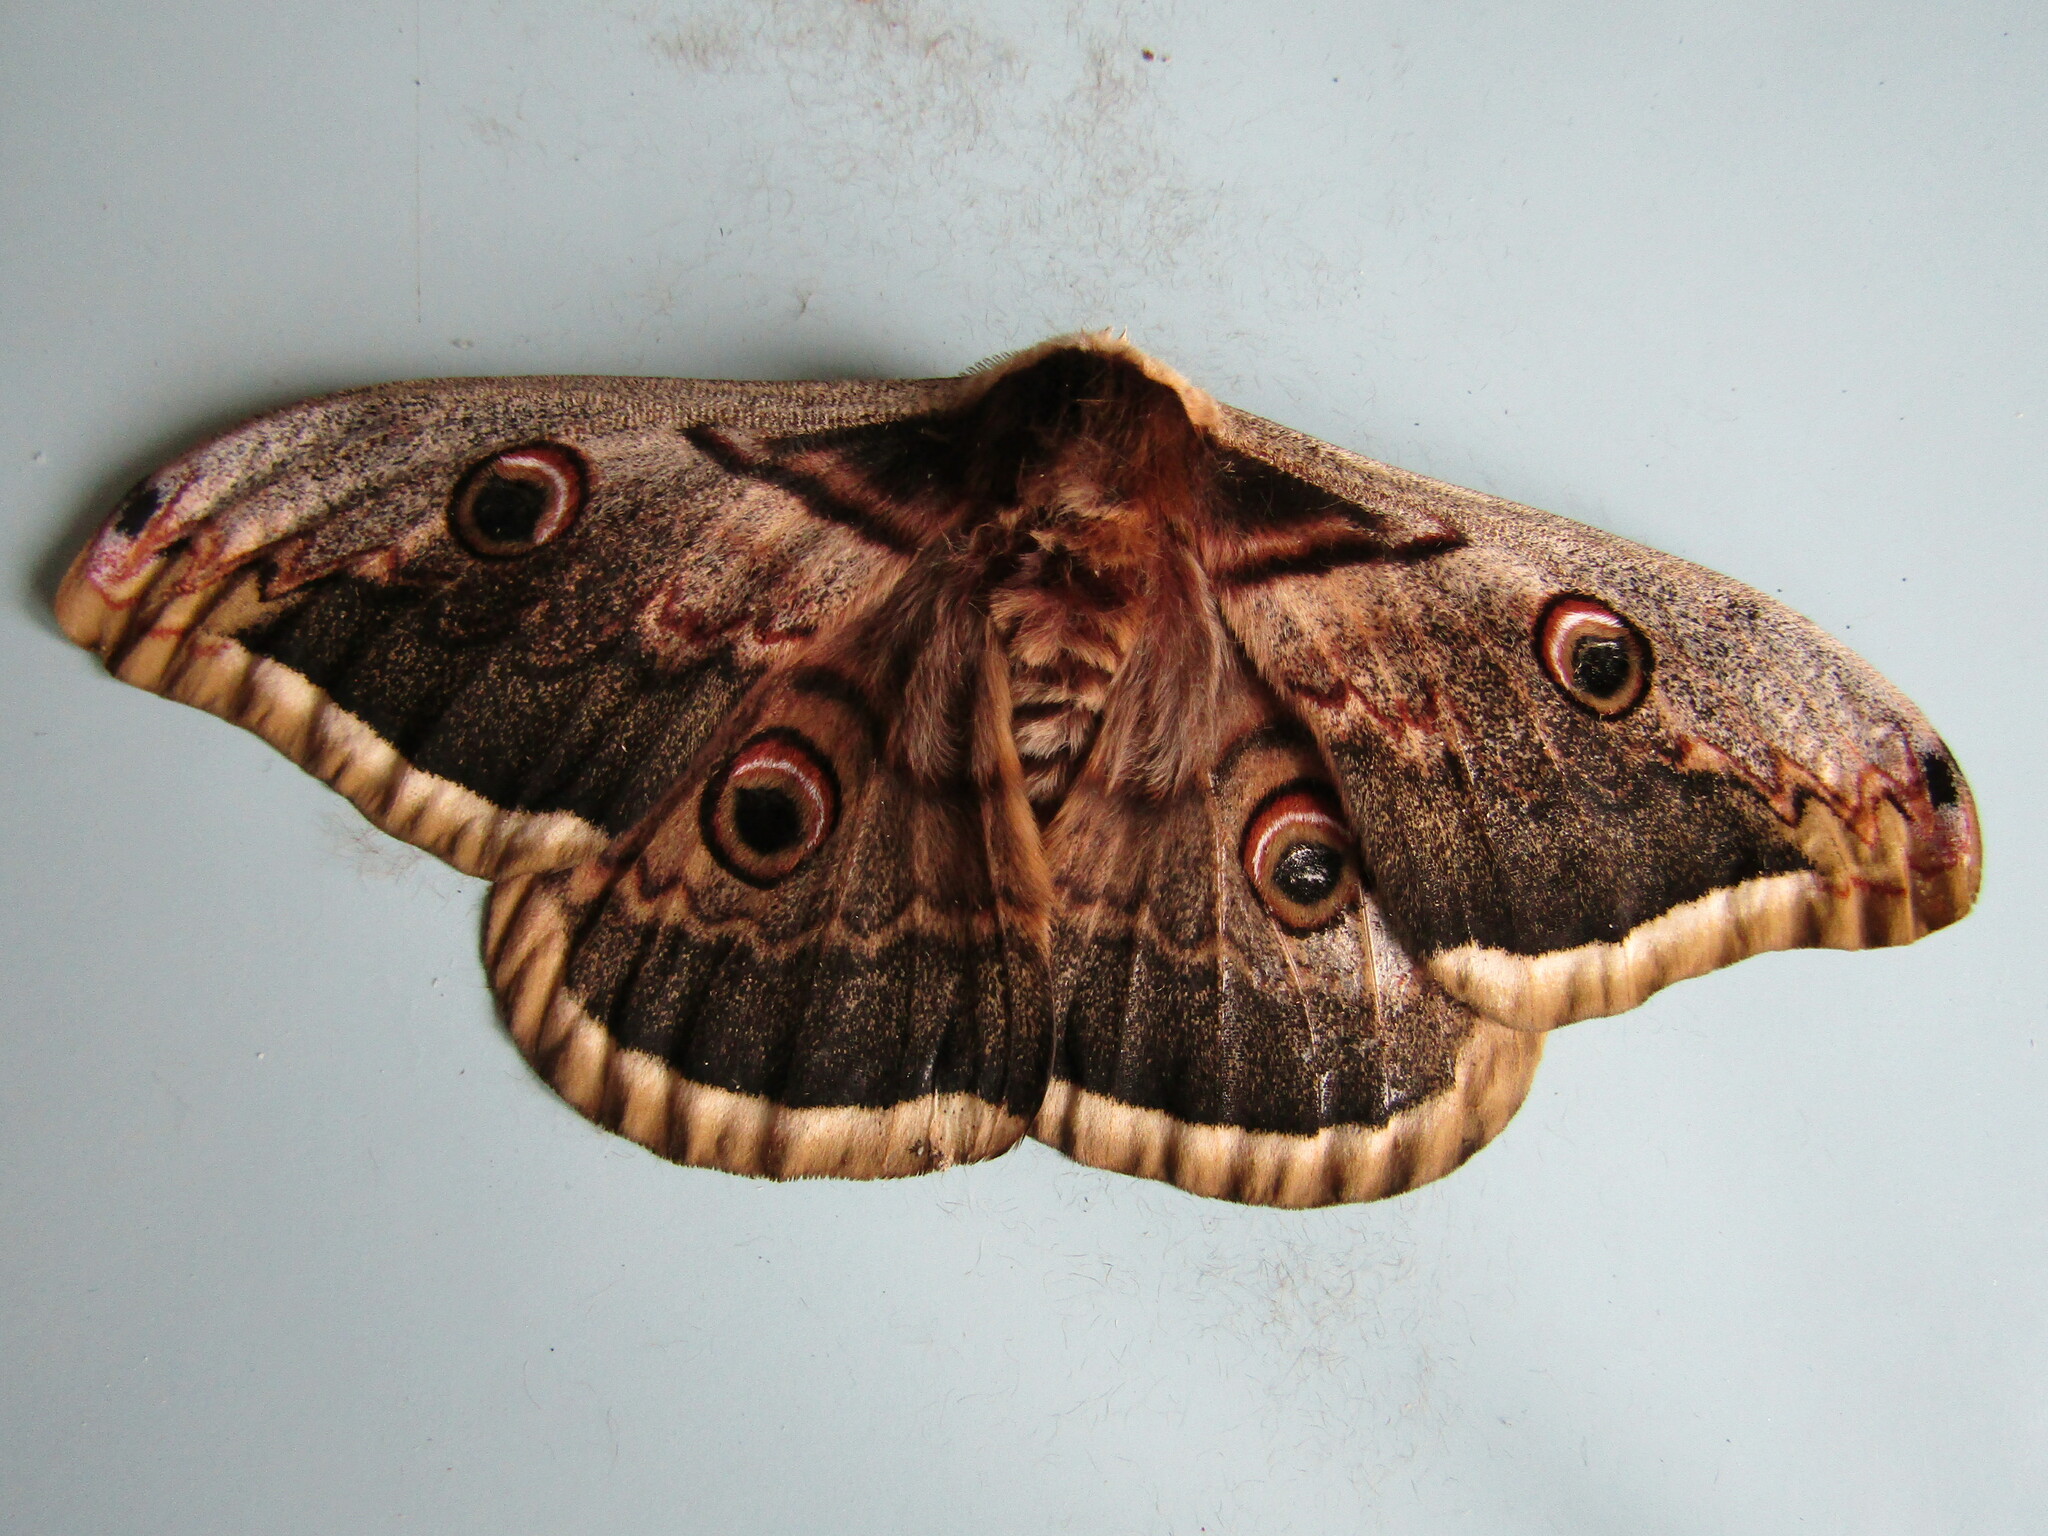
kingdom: Animalia
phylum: Arthropoda
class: Insecta
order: Lepidoptera
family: Saturniidae
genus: Saturnia
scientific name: Saturnia pyri
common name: Great peacock moth
